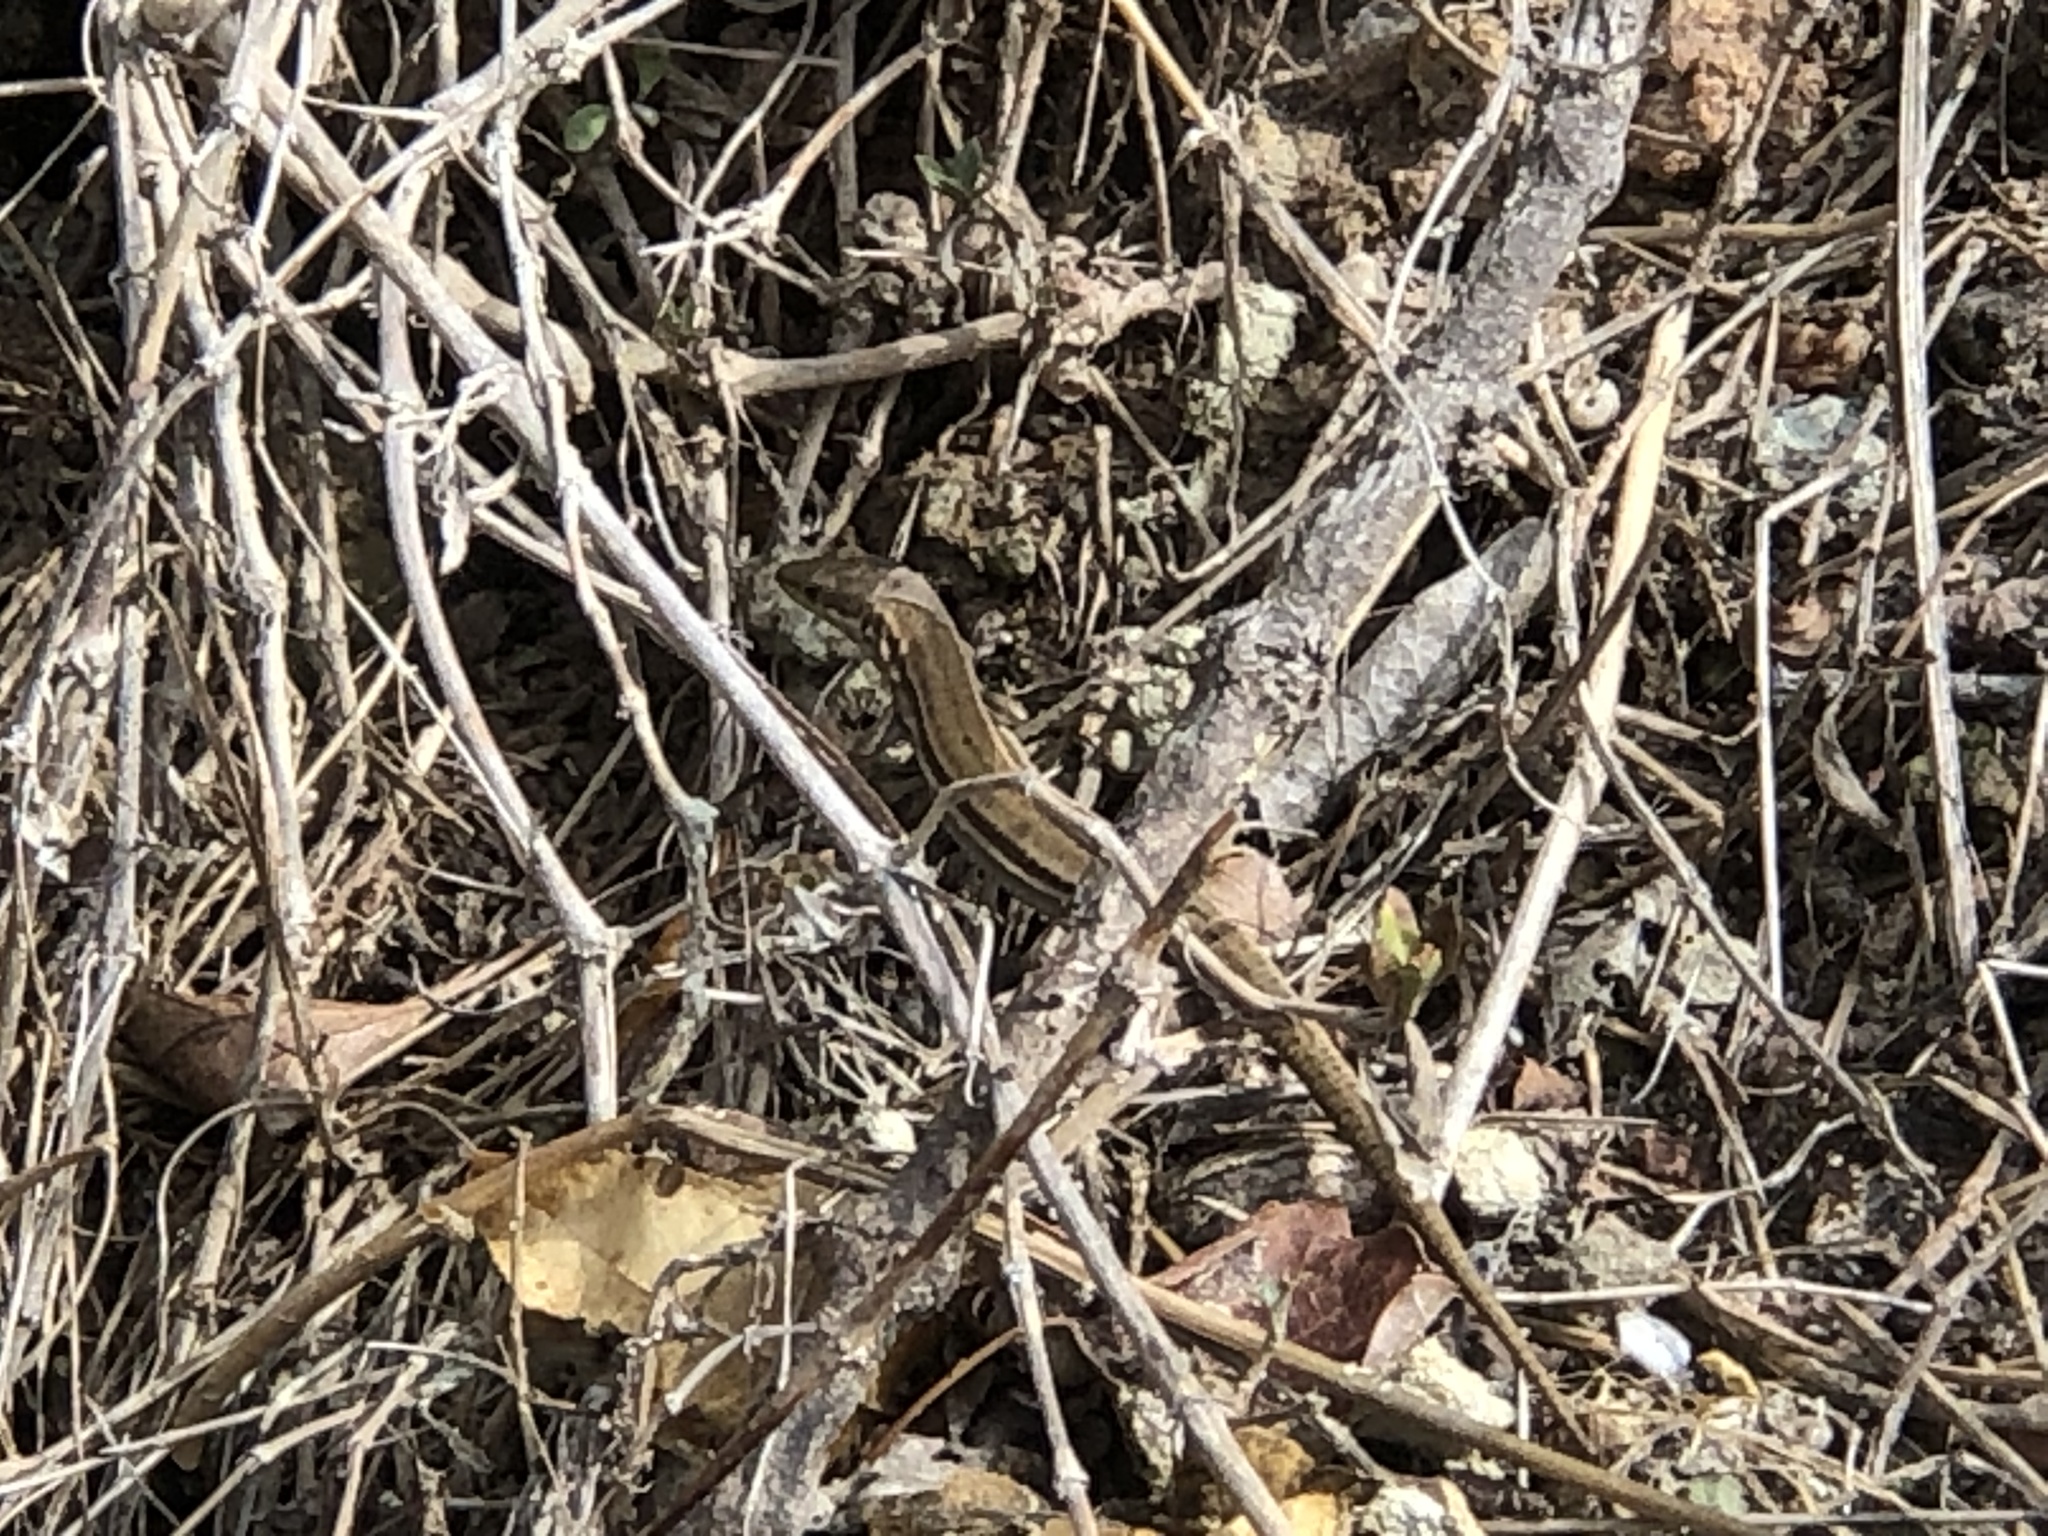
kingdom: Animalia
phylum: Chordata
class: Squamata
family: Lacertidae
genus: Podarcis
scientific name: Podarcis liolepis
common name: Catalonian wall lizard
